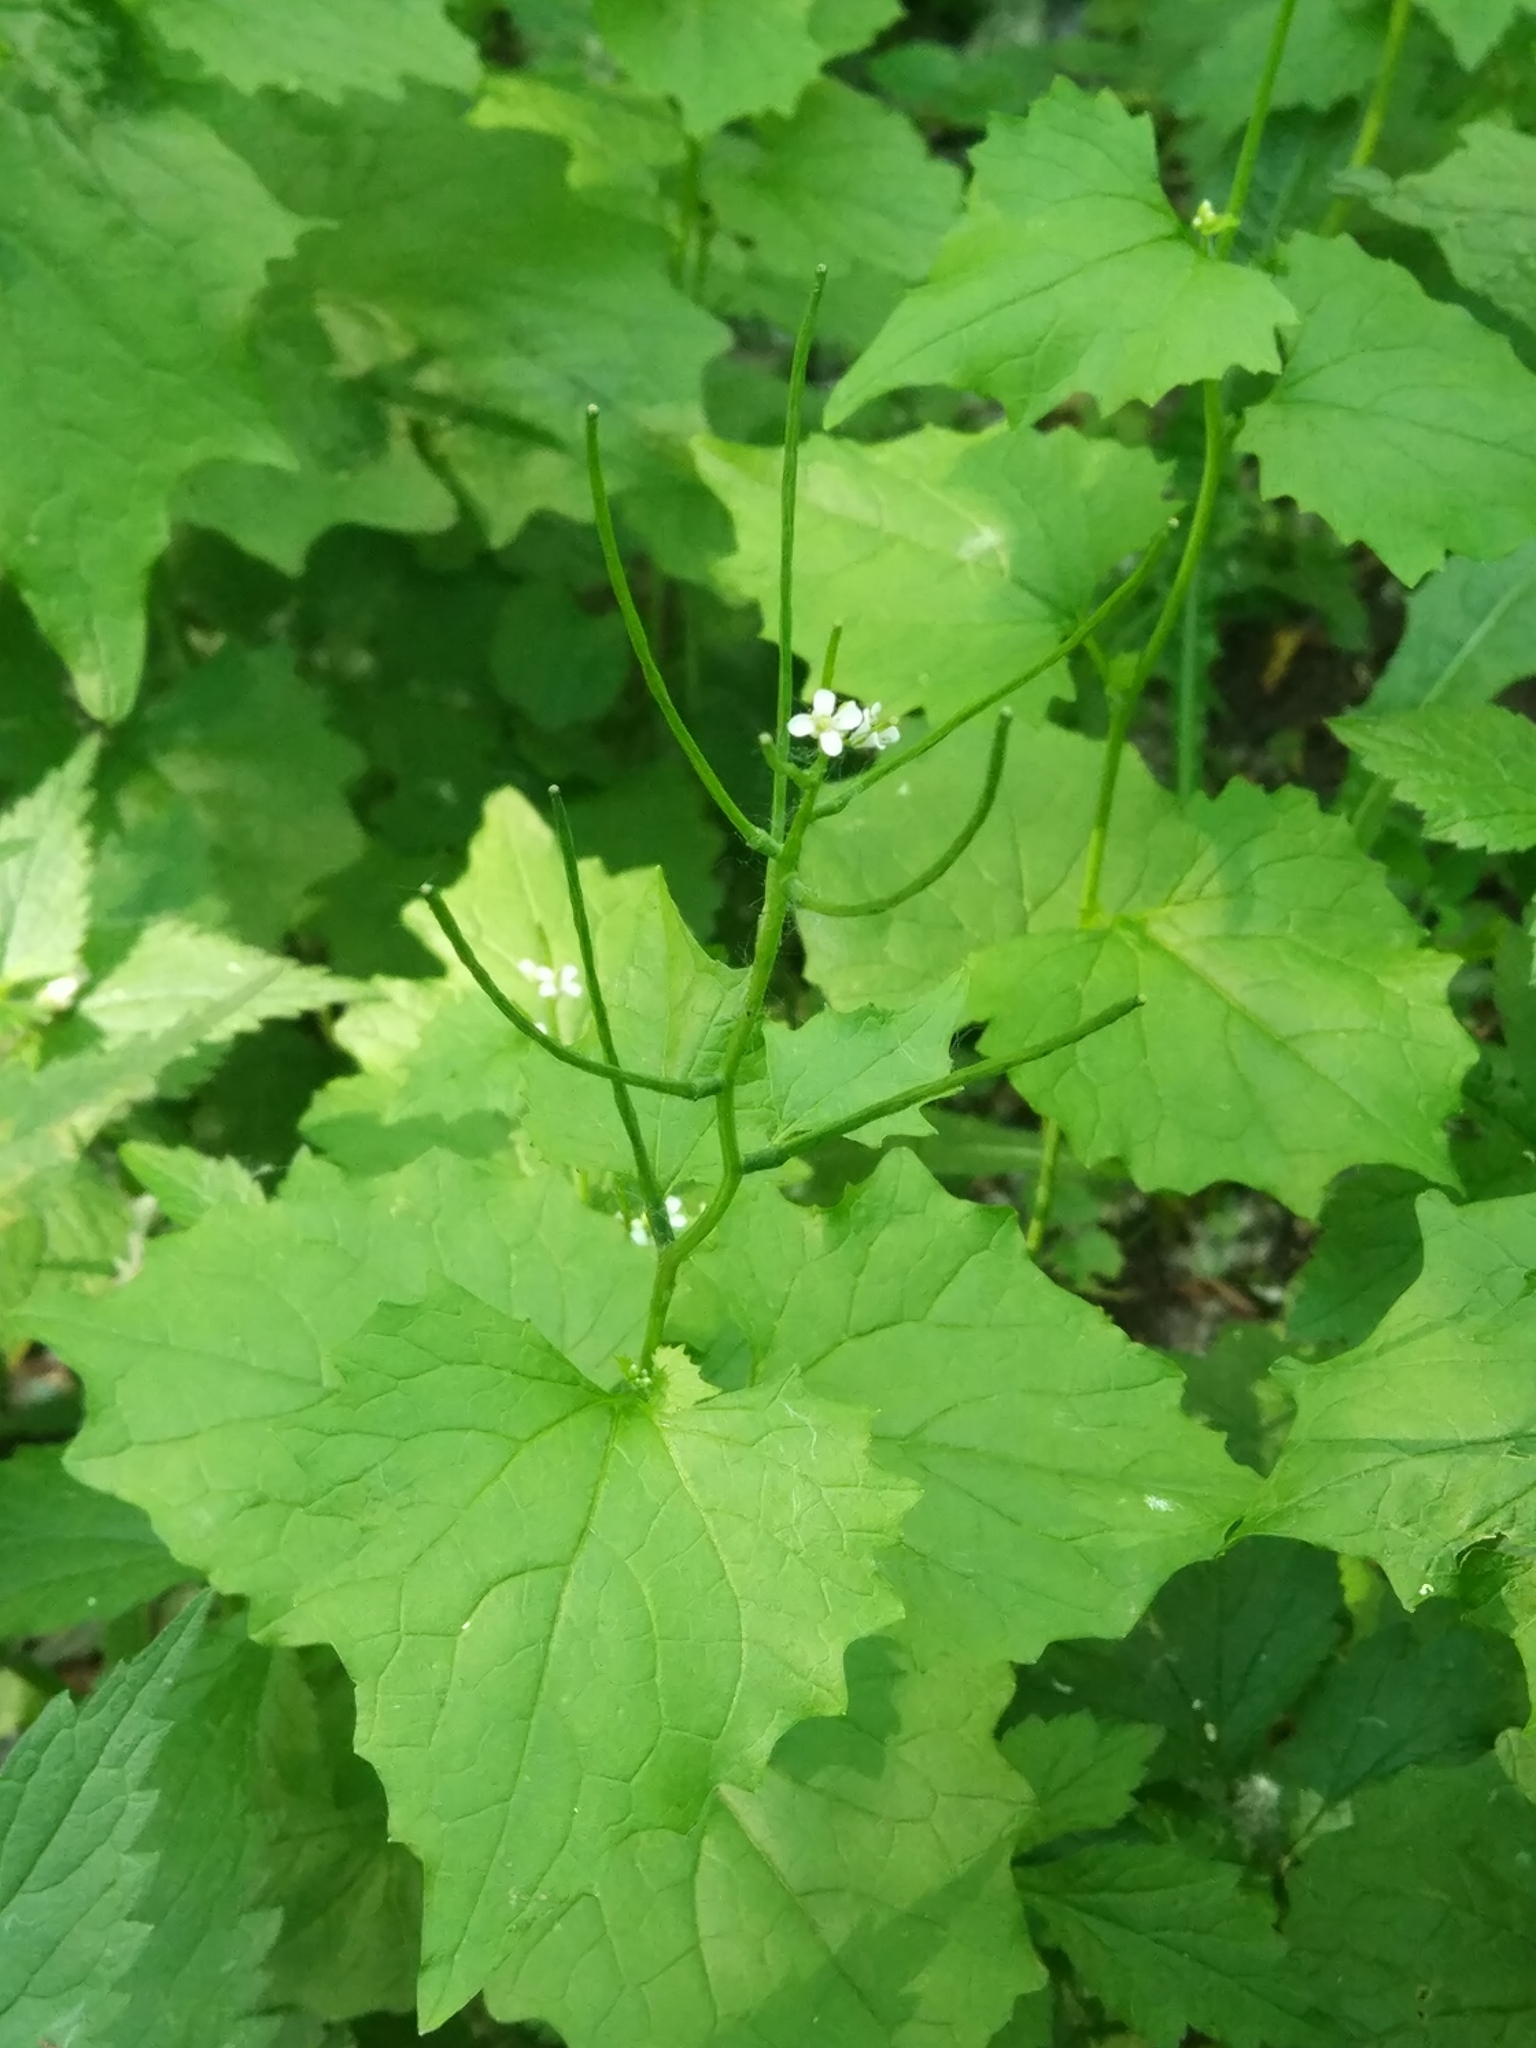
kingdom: Plantae
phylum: Tracheophyta
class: Magnoliopsida
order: Brassicales
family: Brassicaceae
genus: Alliaria
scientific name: Alliaria petiolata
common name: Garlic mustard
